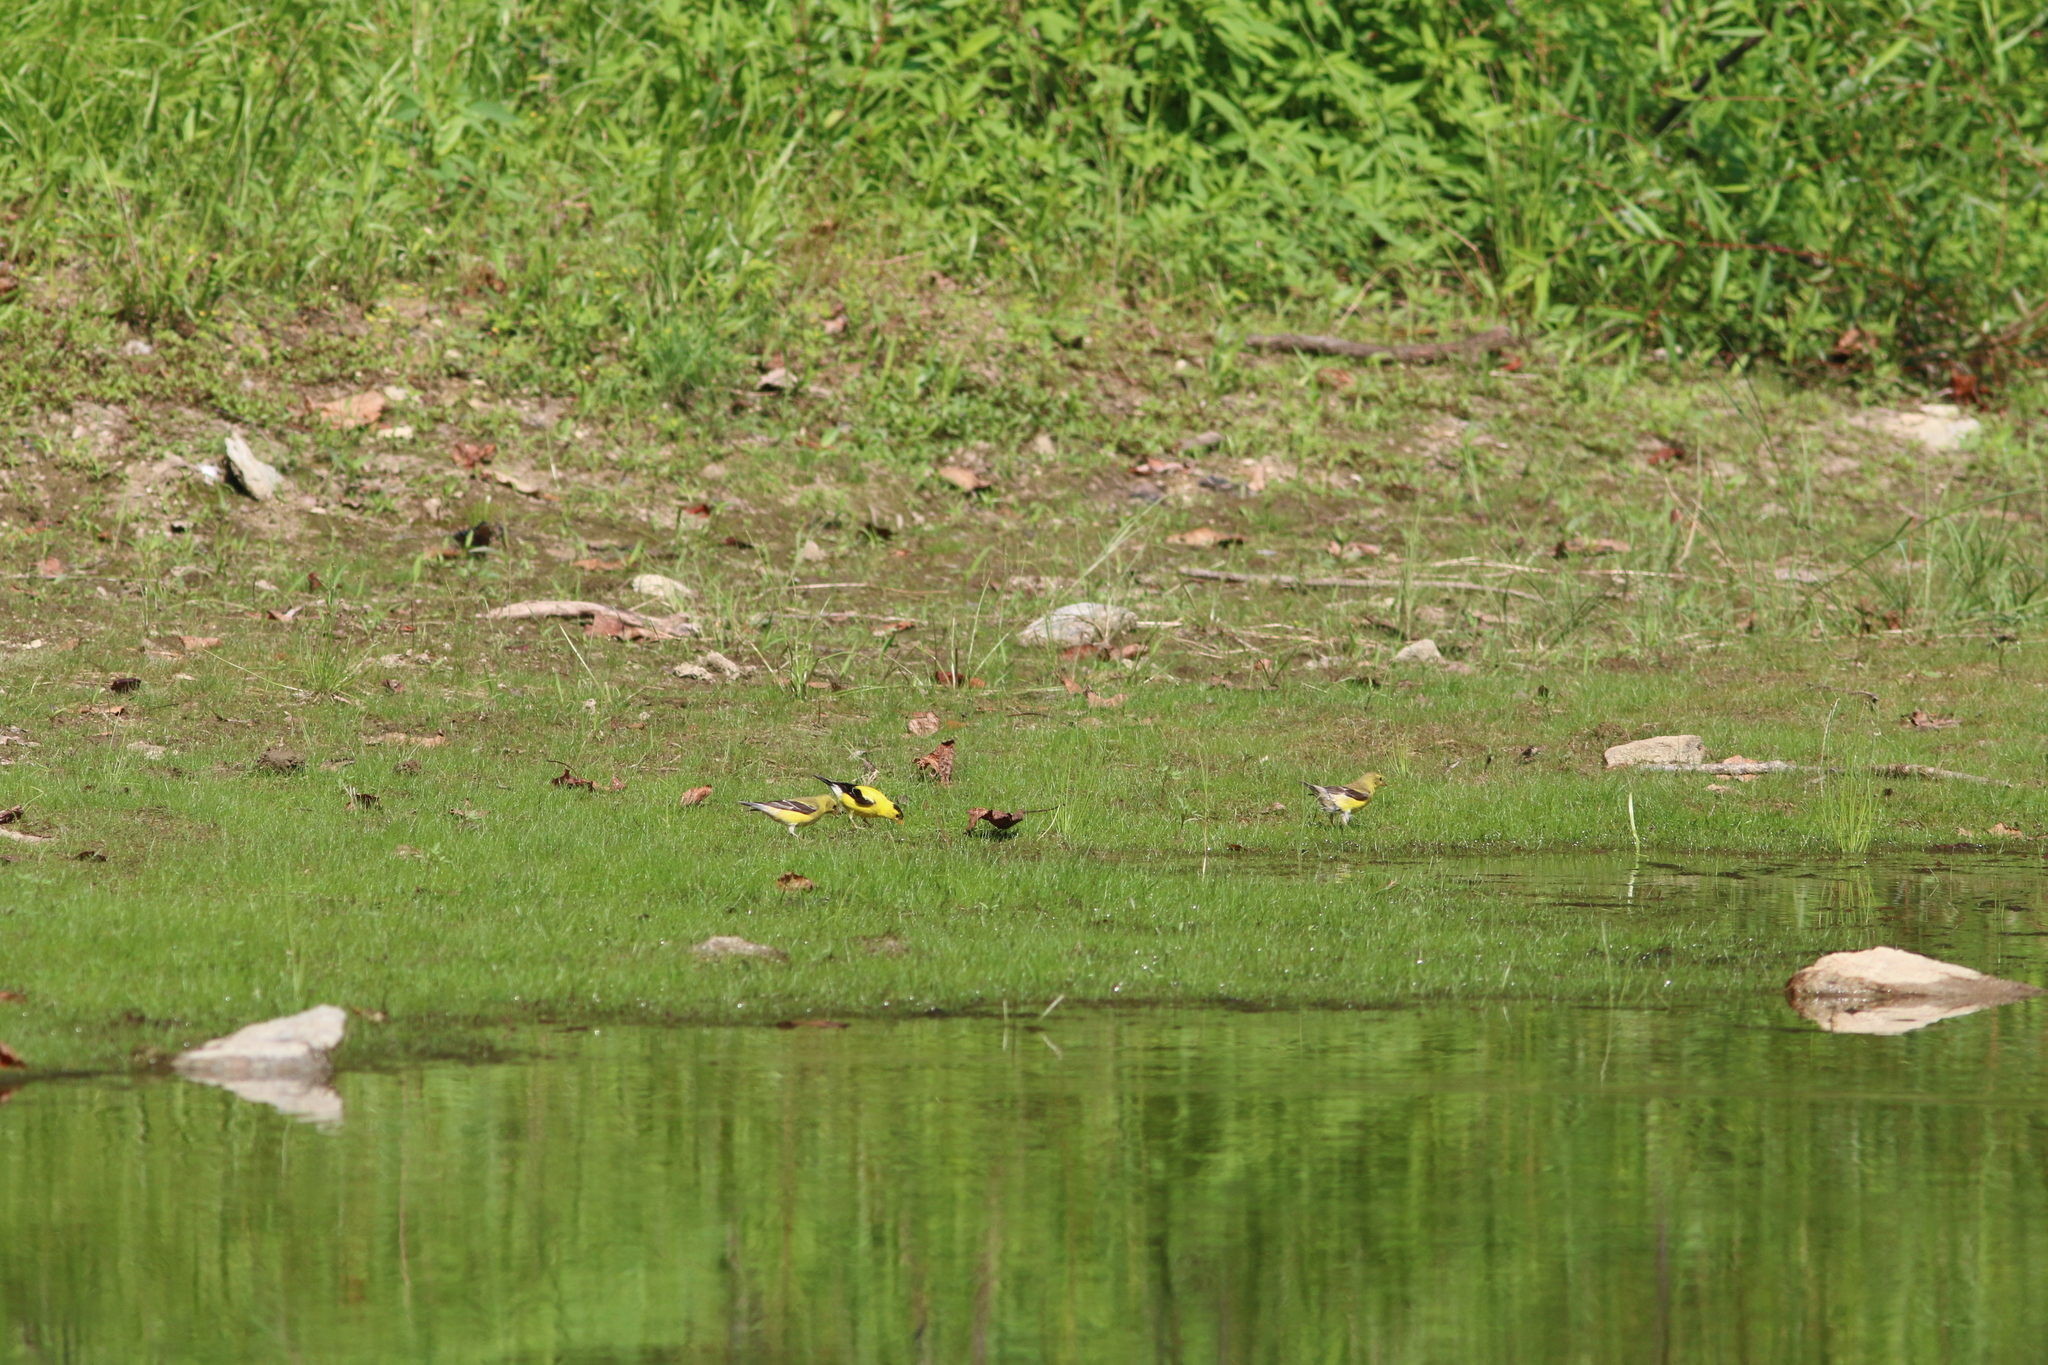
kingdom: Animalia
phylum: Chordata
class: Aves
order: Passeriformes
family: Fringillidae
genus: Spinus
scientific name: Spinus tristis
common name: American goldfinch
